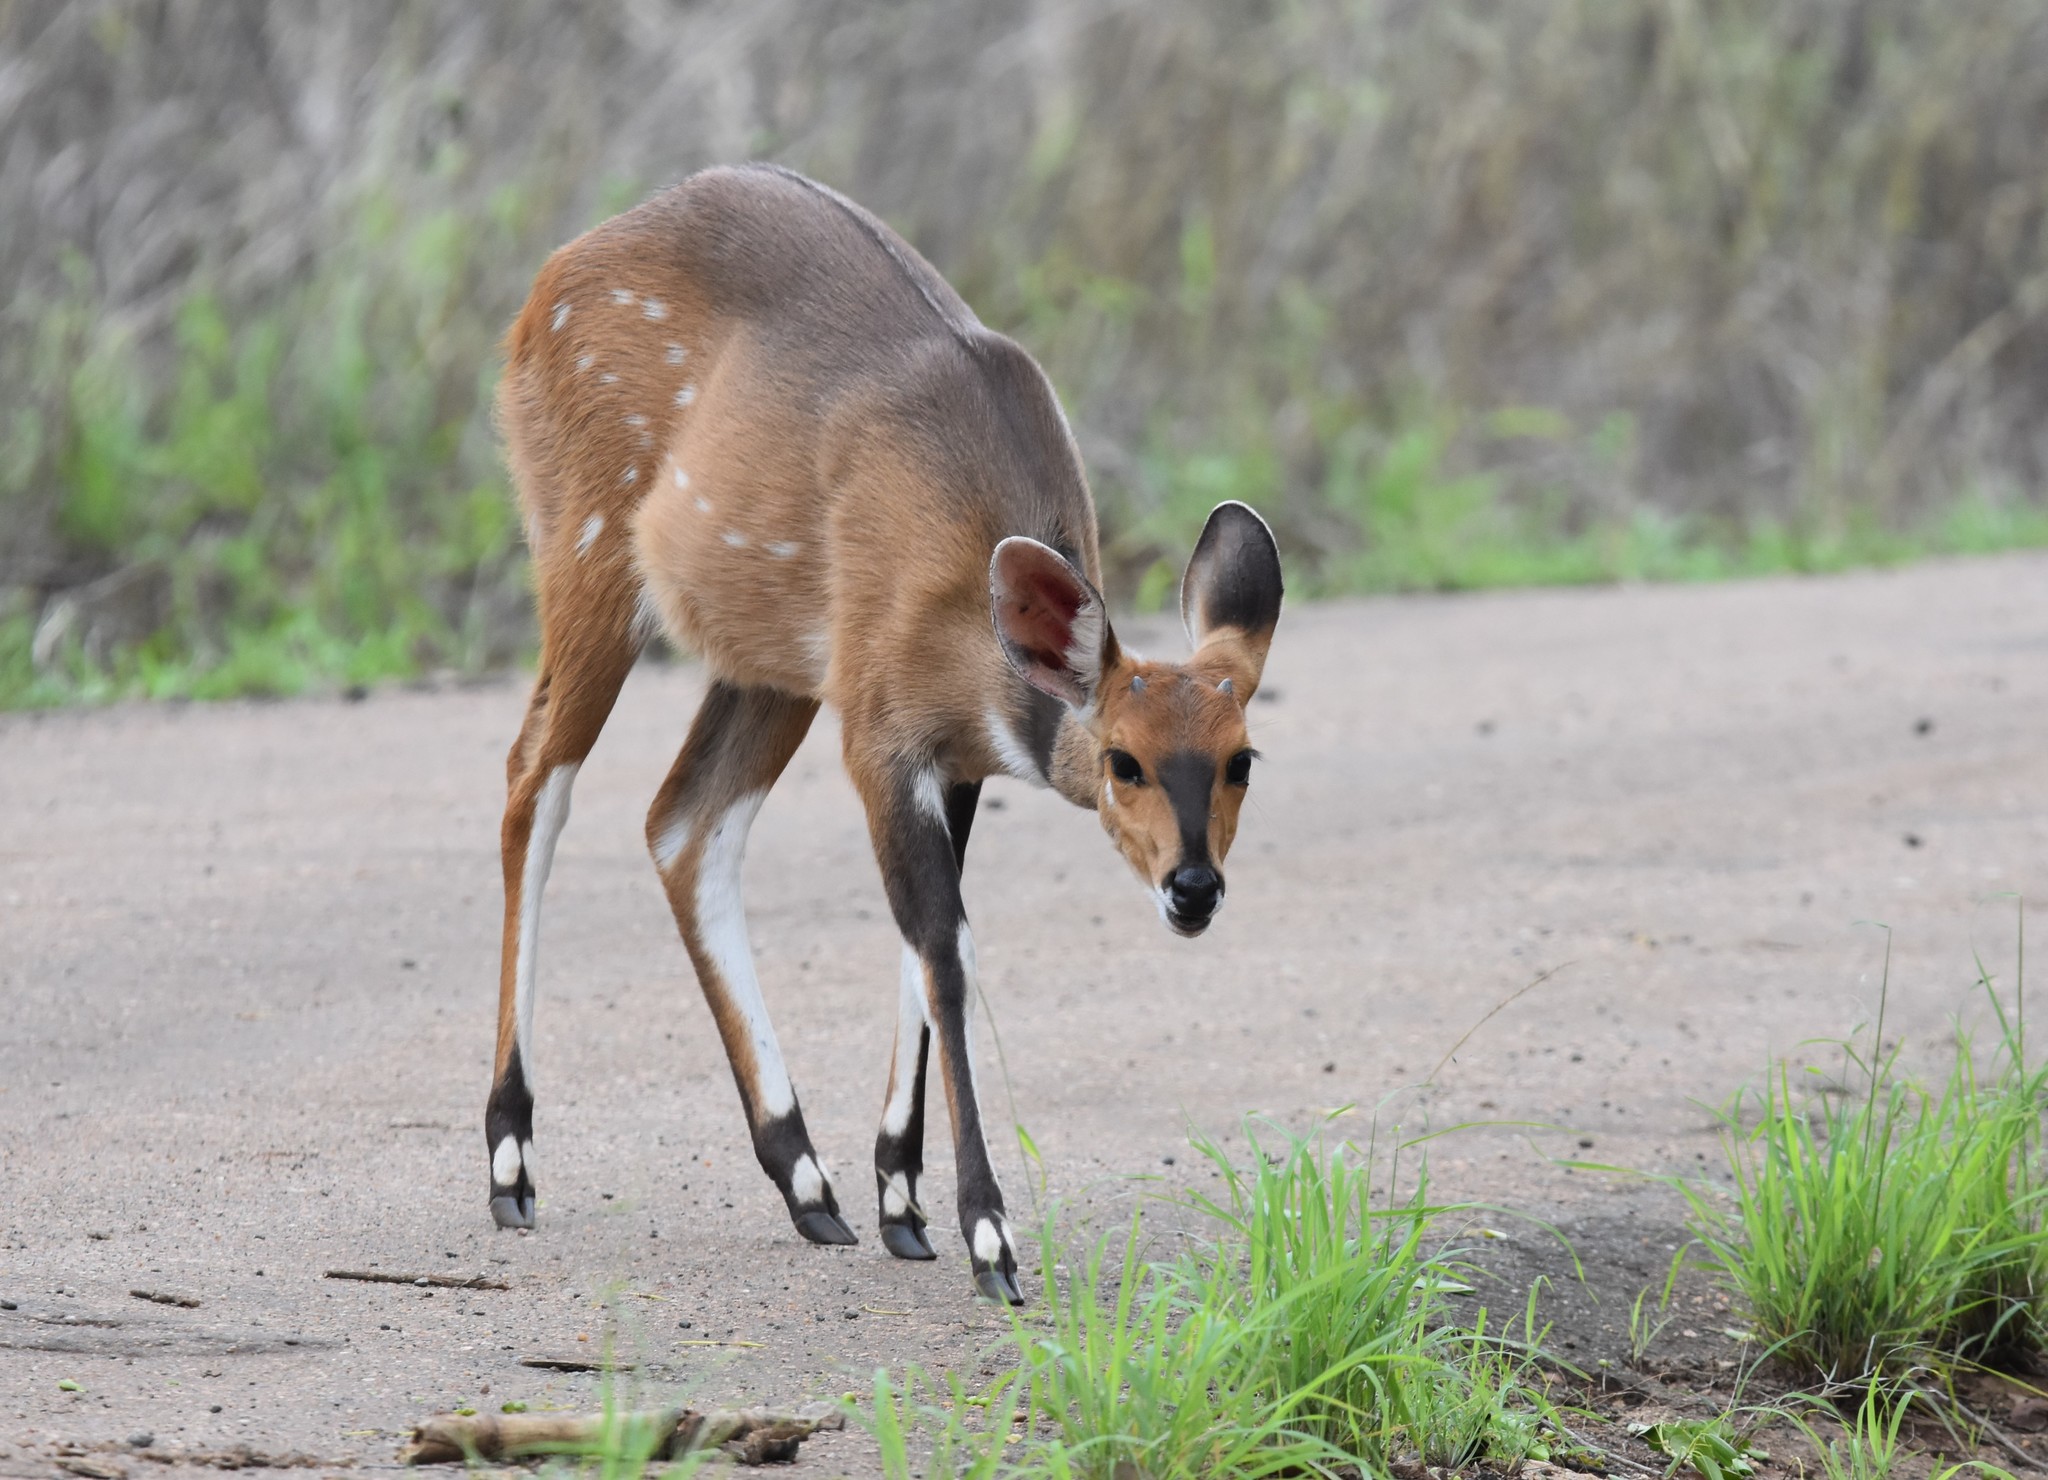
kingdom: Animalia
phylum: Chordata
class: Mammalia
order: Artiodactyla
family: Bovidae
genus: Tragelaphus
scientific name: Tragelaphus scriptus
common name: Bushbuck
